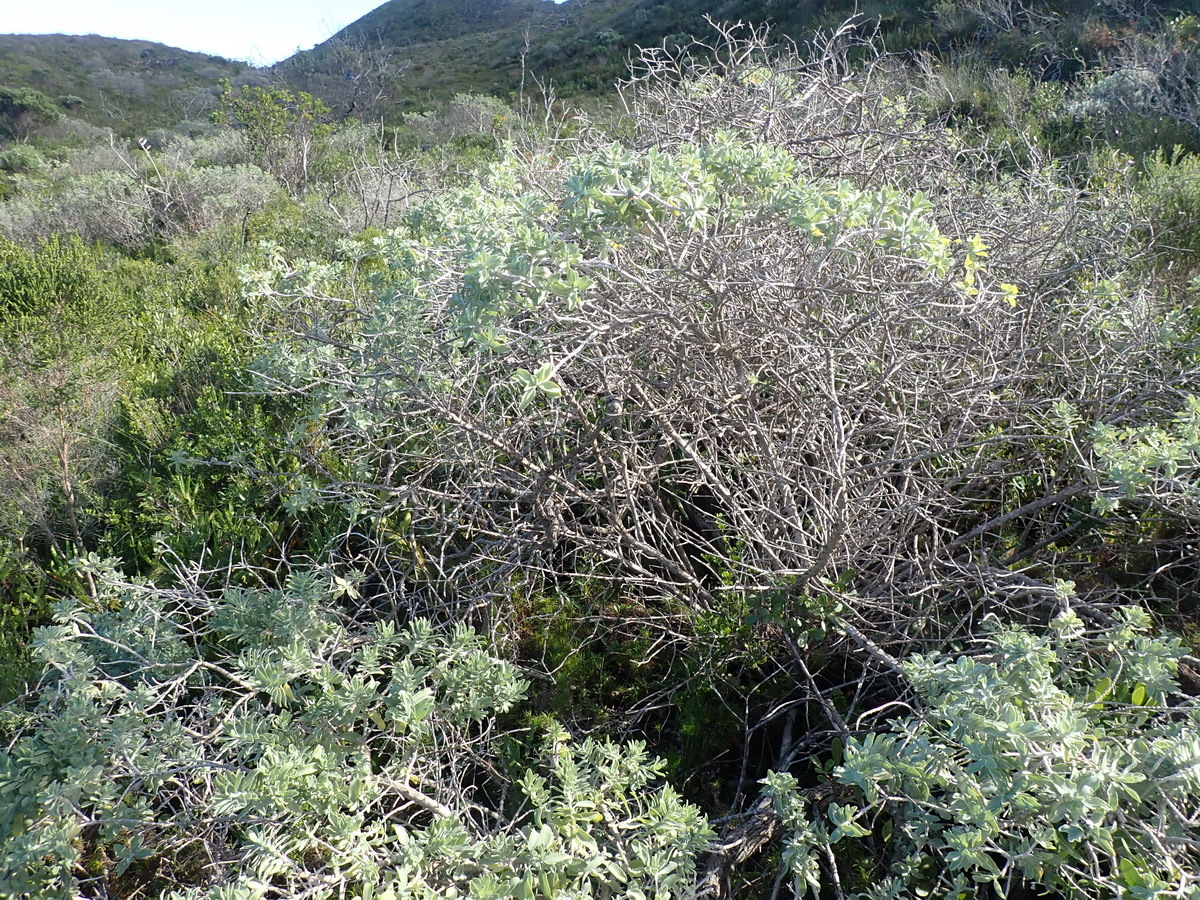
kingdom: Plantae
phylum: Tracheophyta
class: Magnoliopsida
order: Lamiales
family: Lamiaceae
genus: Salvia
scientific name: Salvia aurea
